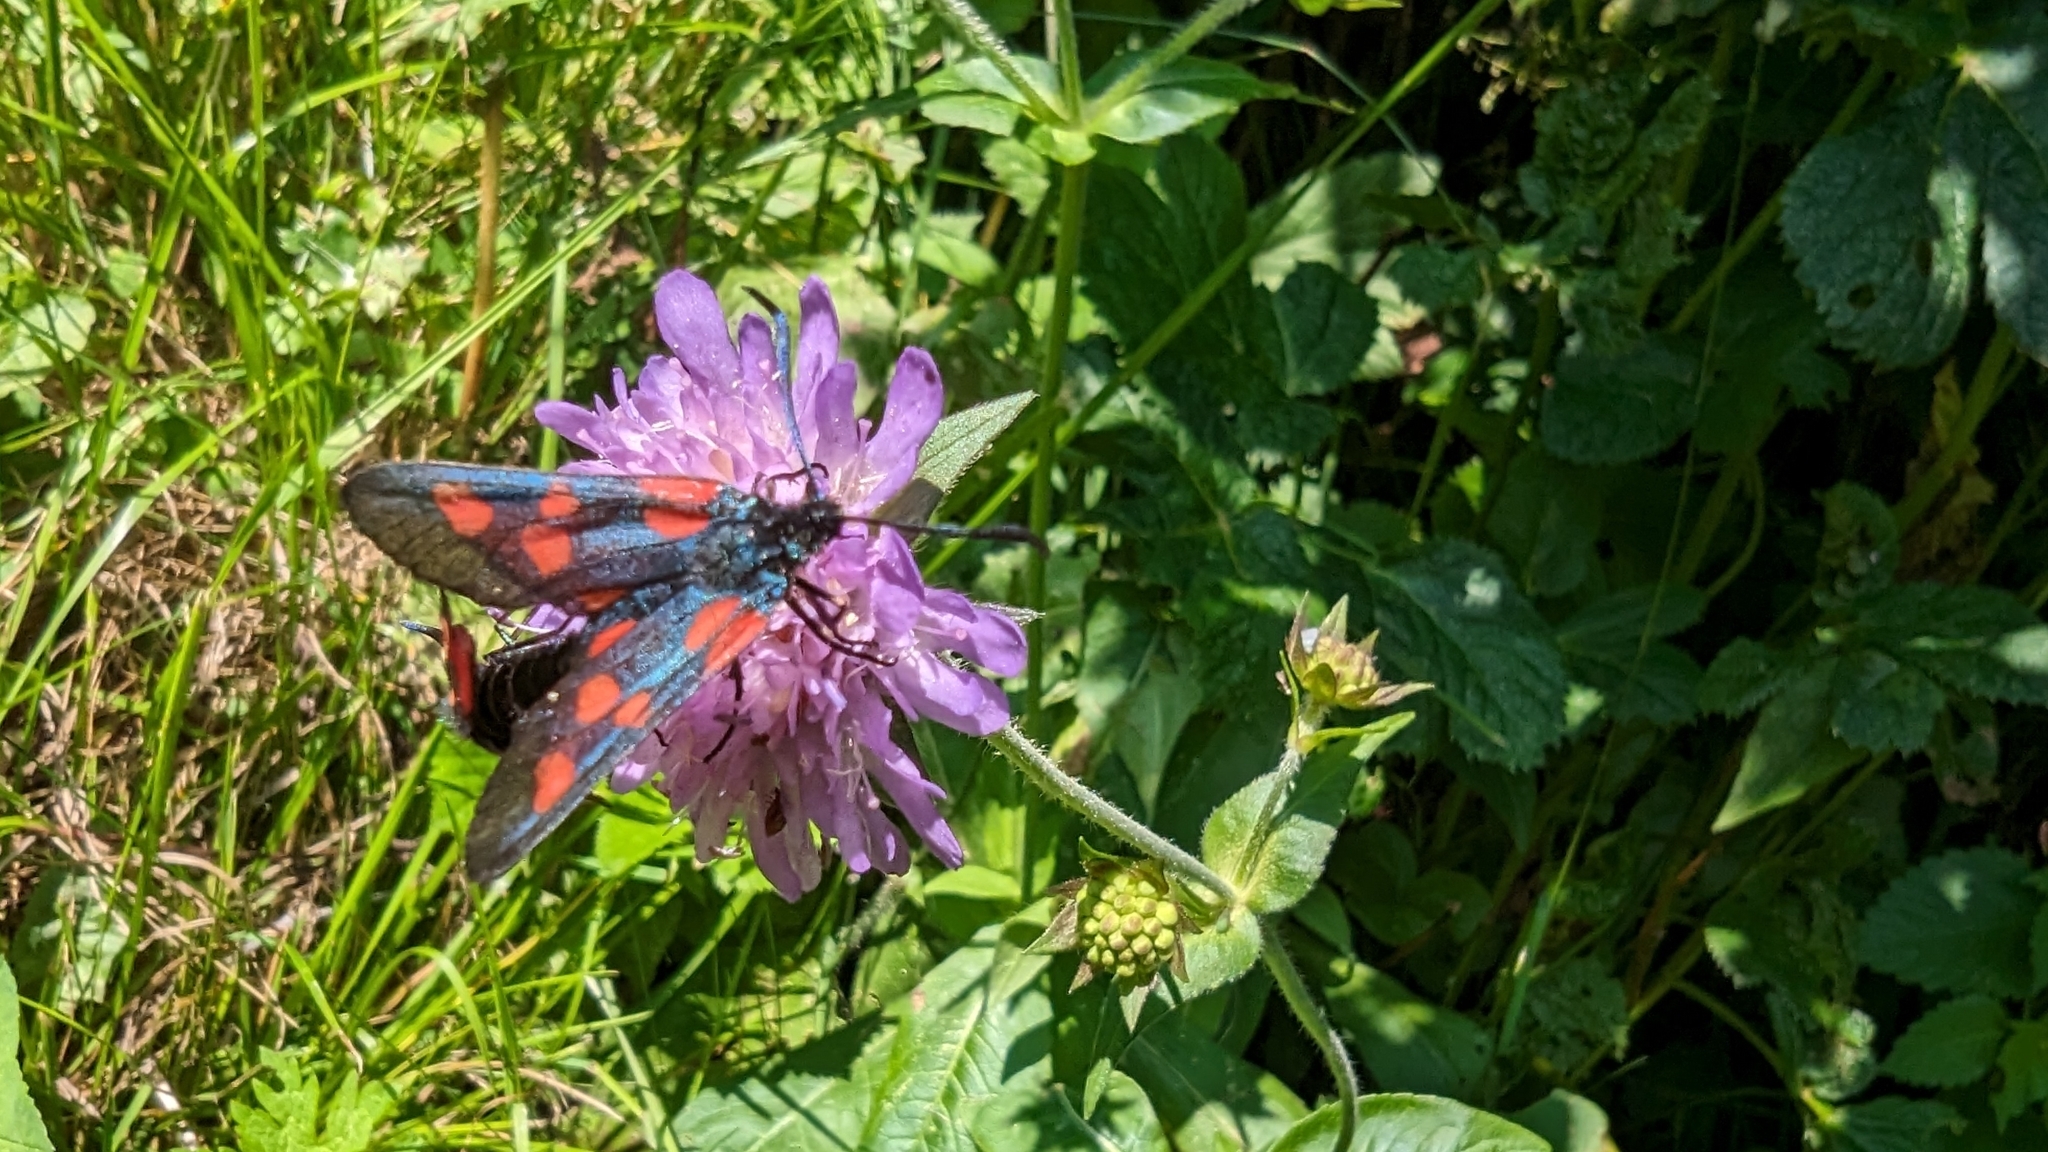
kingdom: Animalia
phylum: Arthropoda
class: Insecta
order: Lepidoptera
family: Zygaenidae
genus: Zygaena
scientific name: Zygaena lonicerae
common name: Narrow-bordered five-spot burnet
